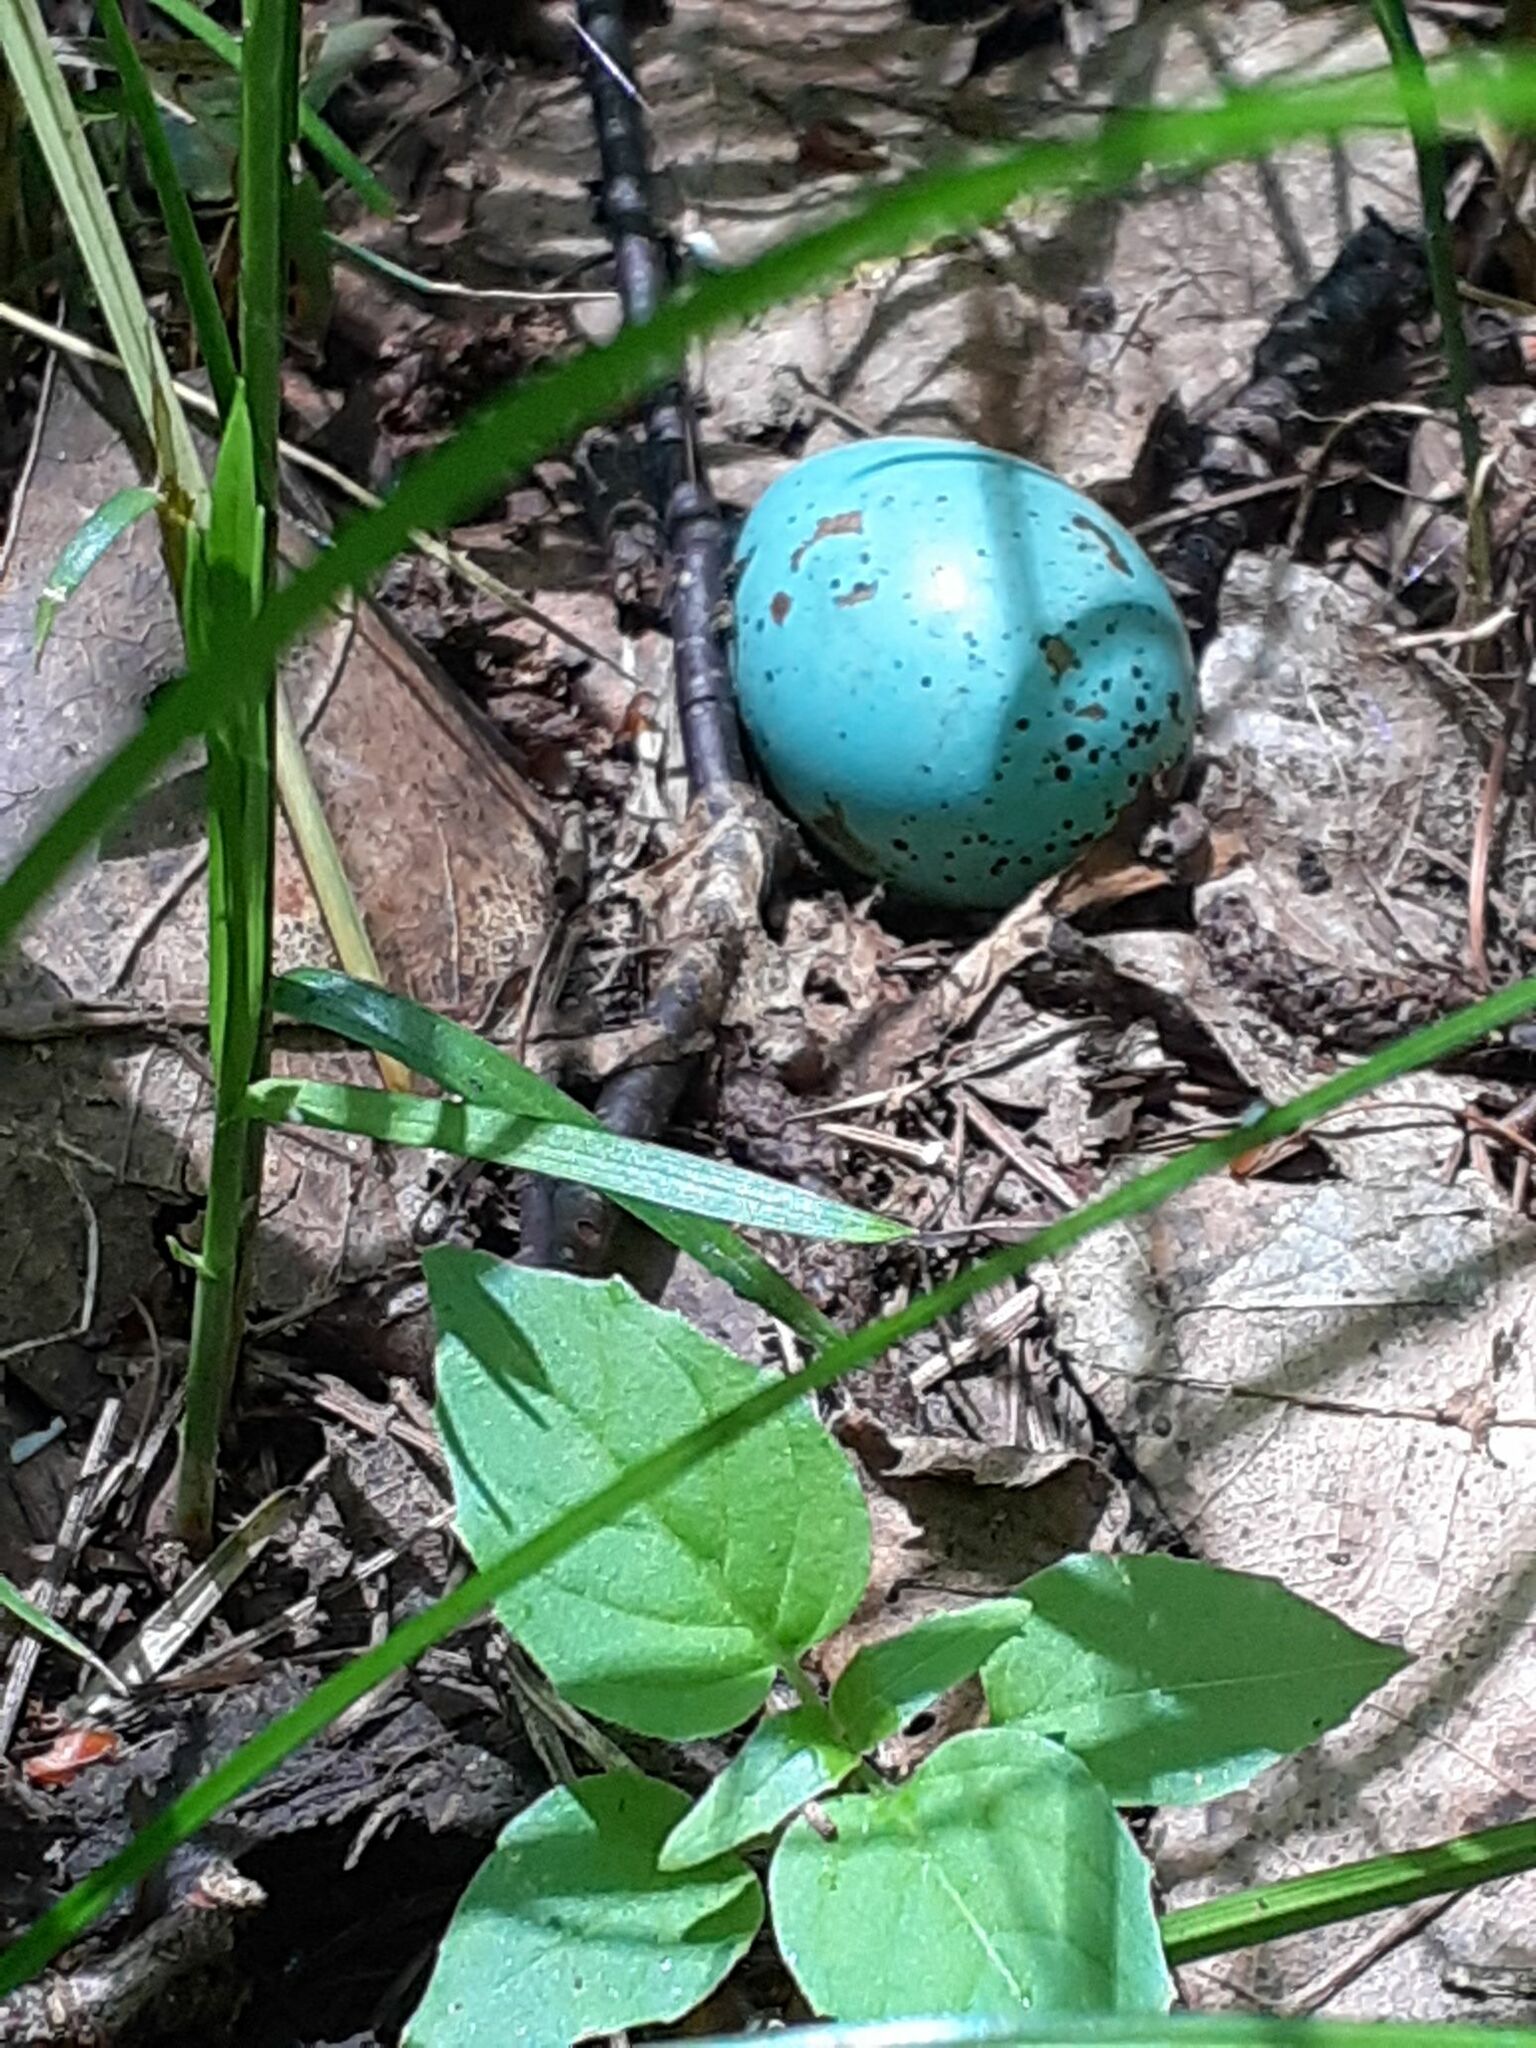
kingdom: Animalia
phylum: Chordata
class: Aves
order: Passeriformes
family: Turdidae
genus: Turdus
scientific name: Turdus philomelos
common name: Song thrush
